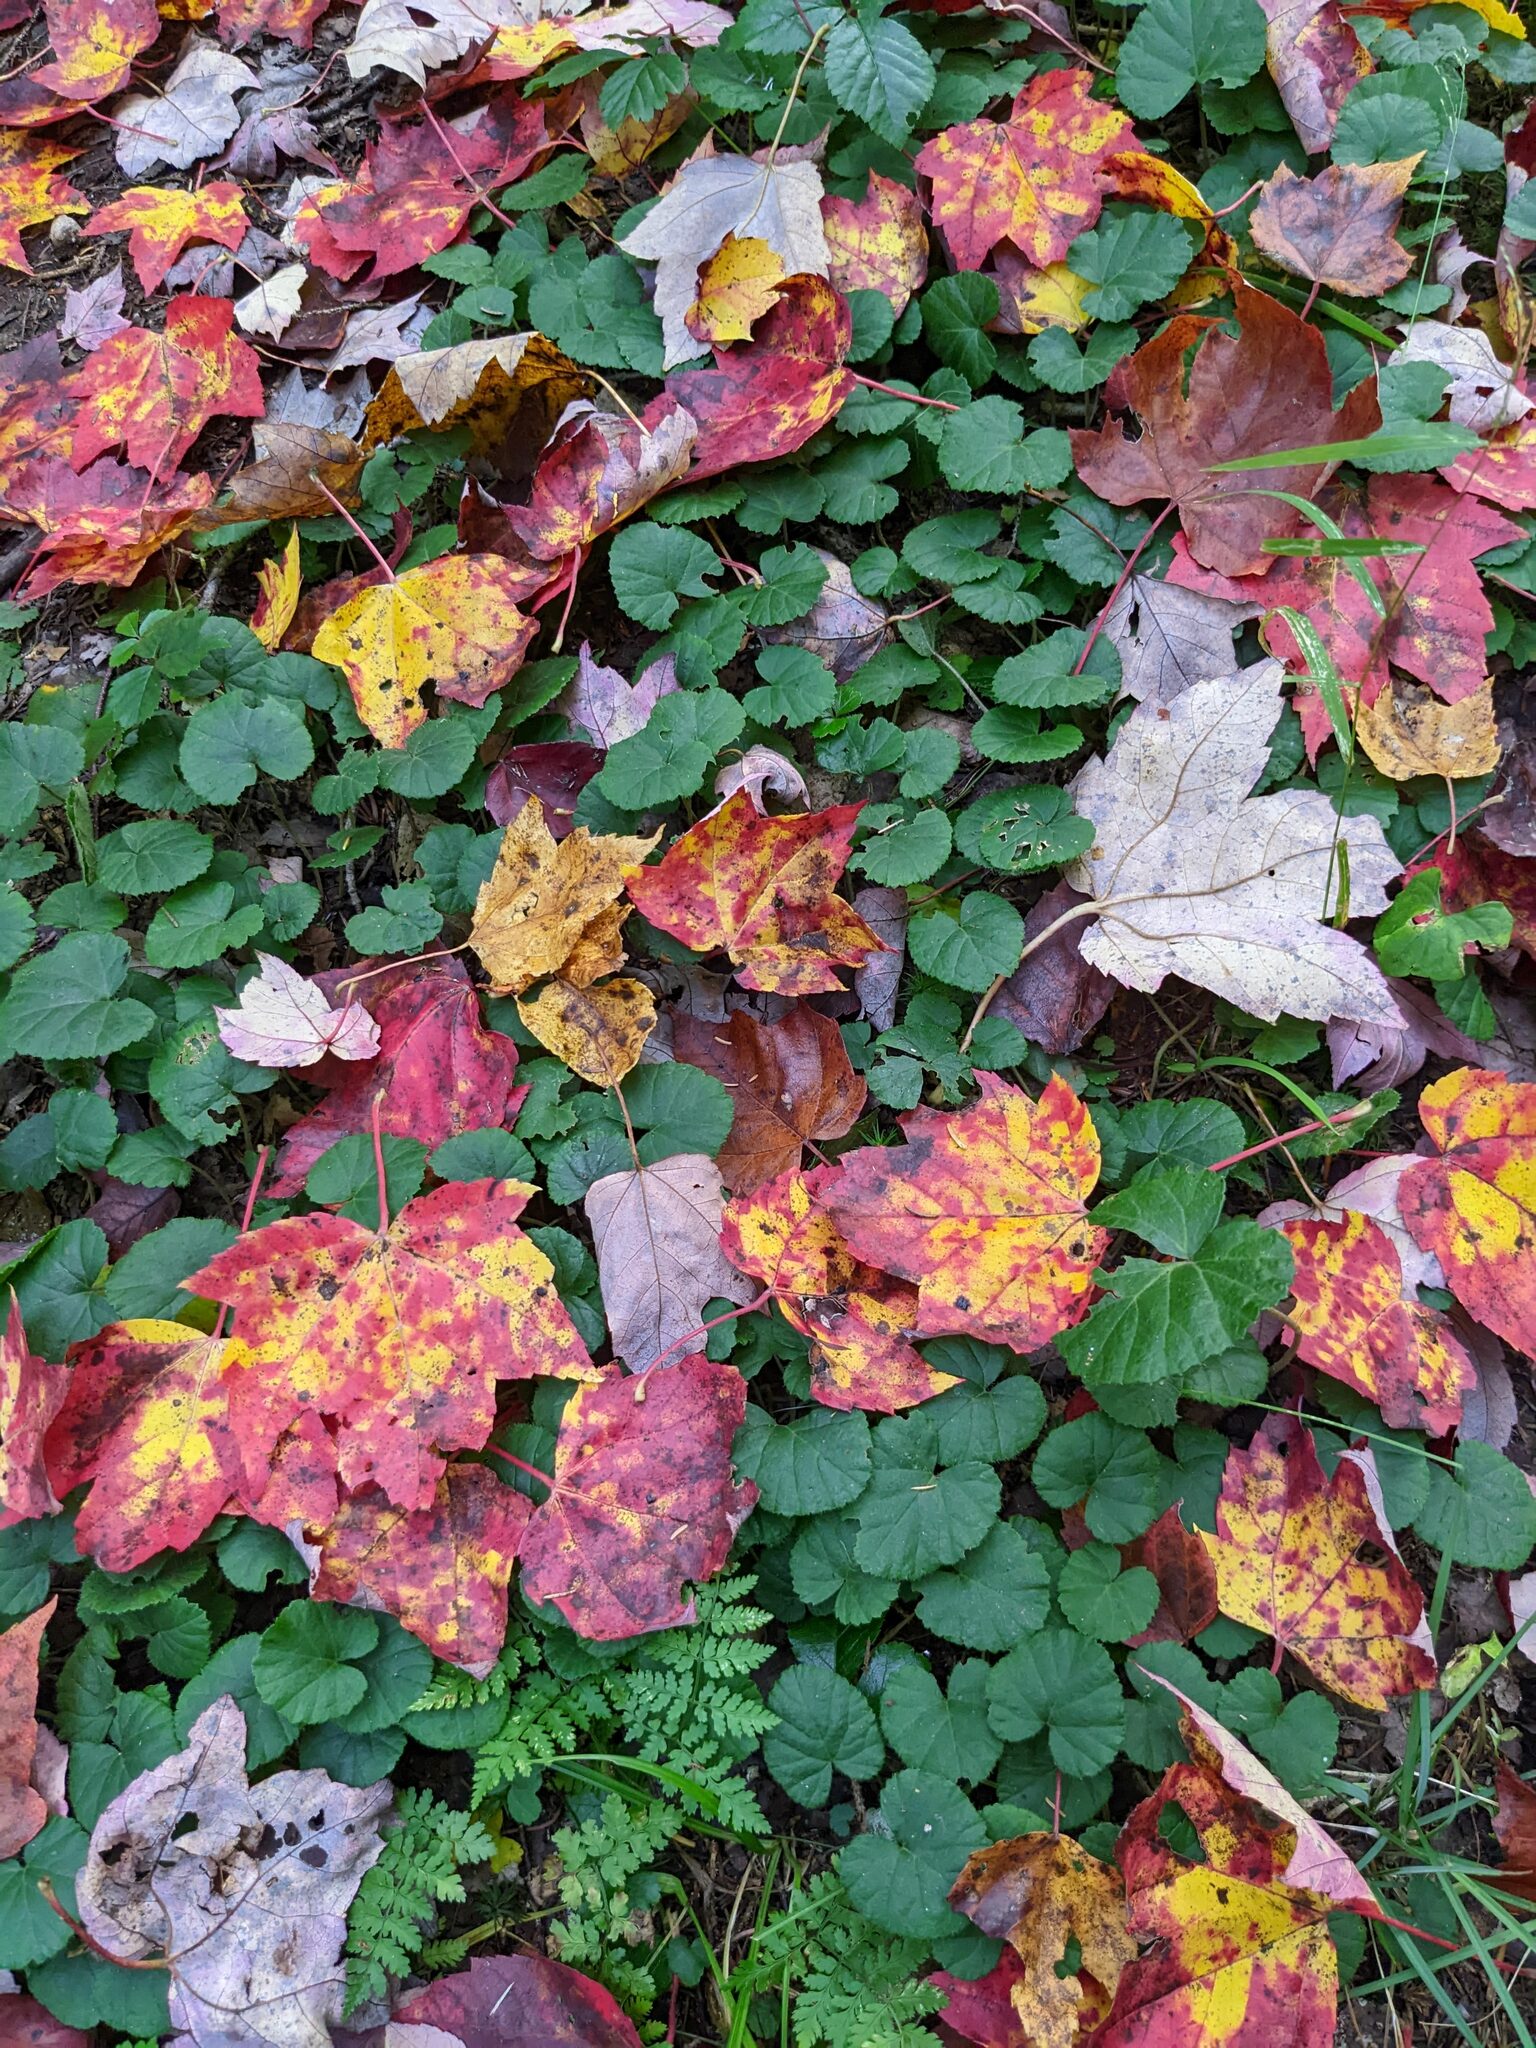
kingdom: Plantae
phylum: Tracheophyta
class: Magnoliopsida
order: Rosales
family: Rosaceae
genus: Dalibarda
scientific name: Dalibarda repens
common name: Dewdrop
